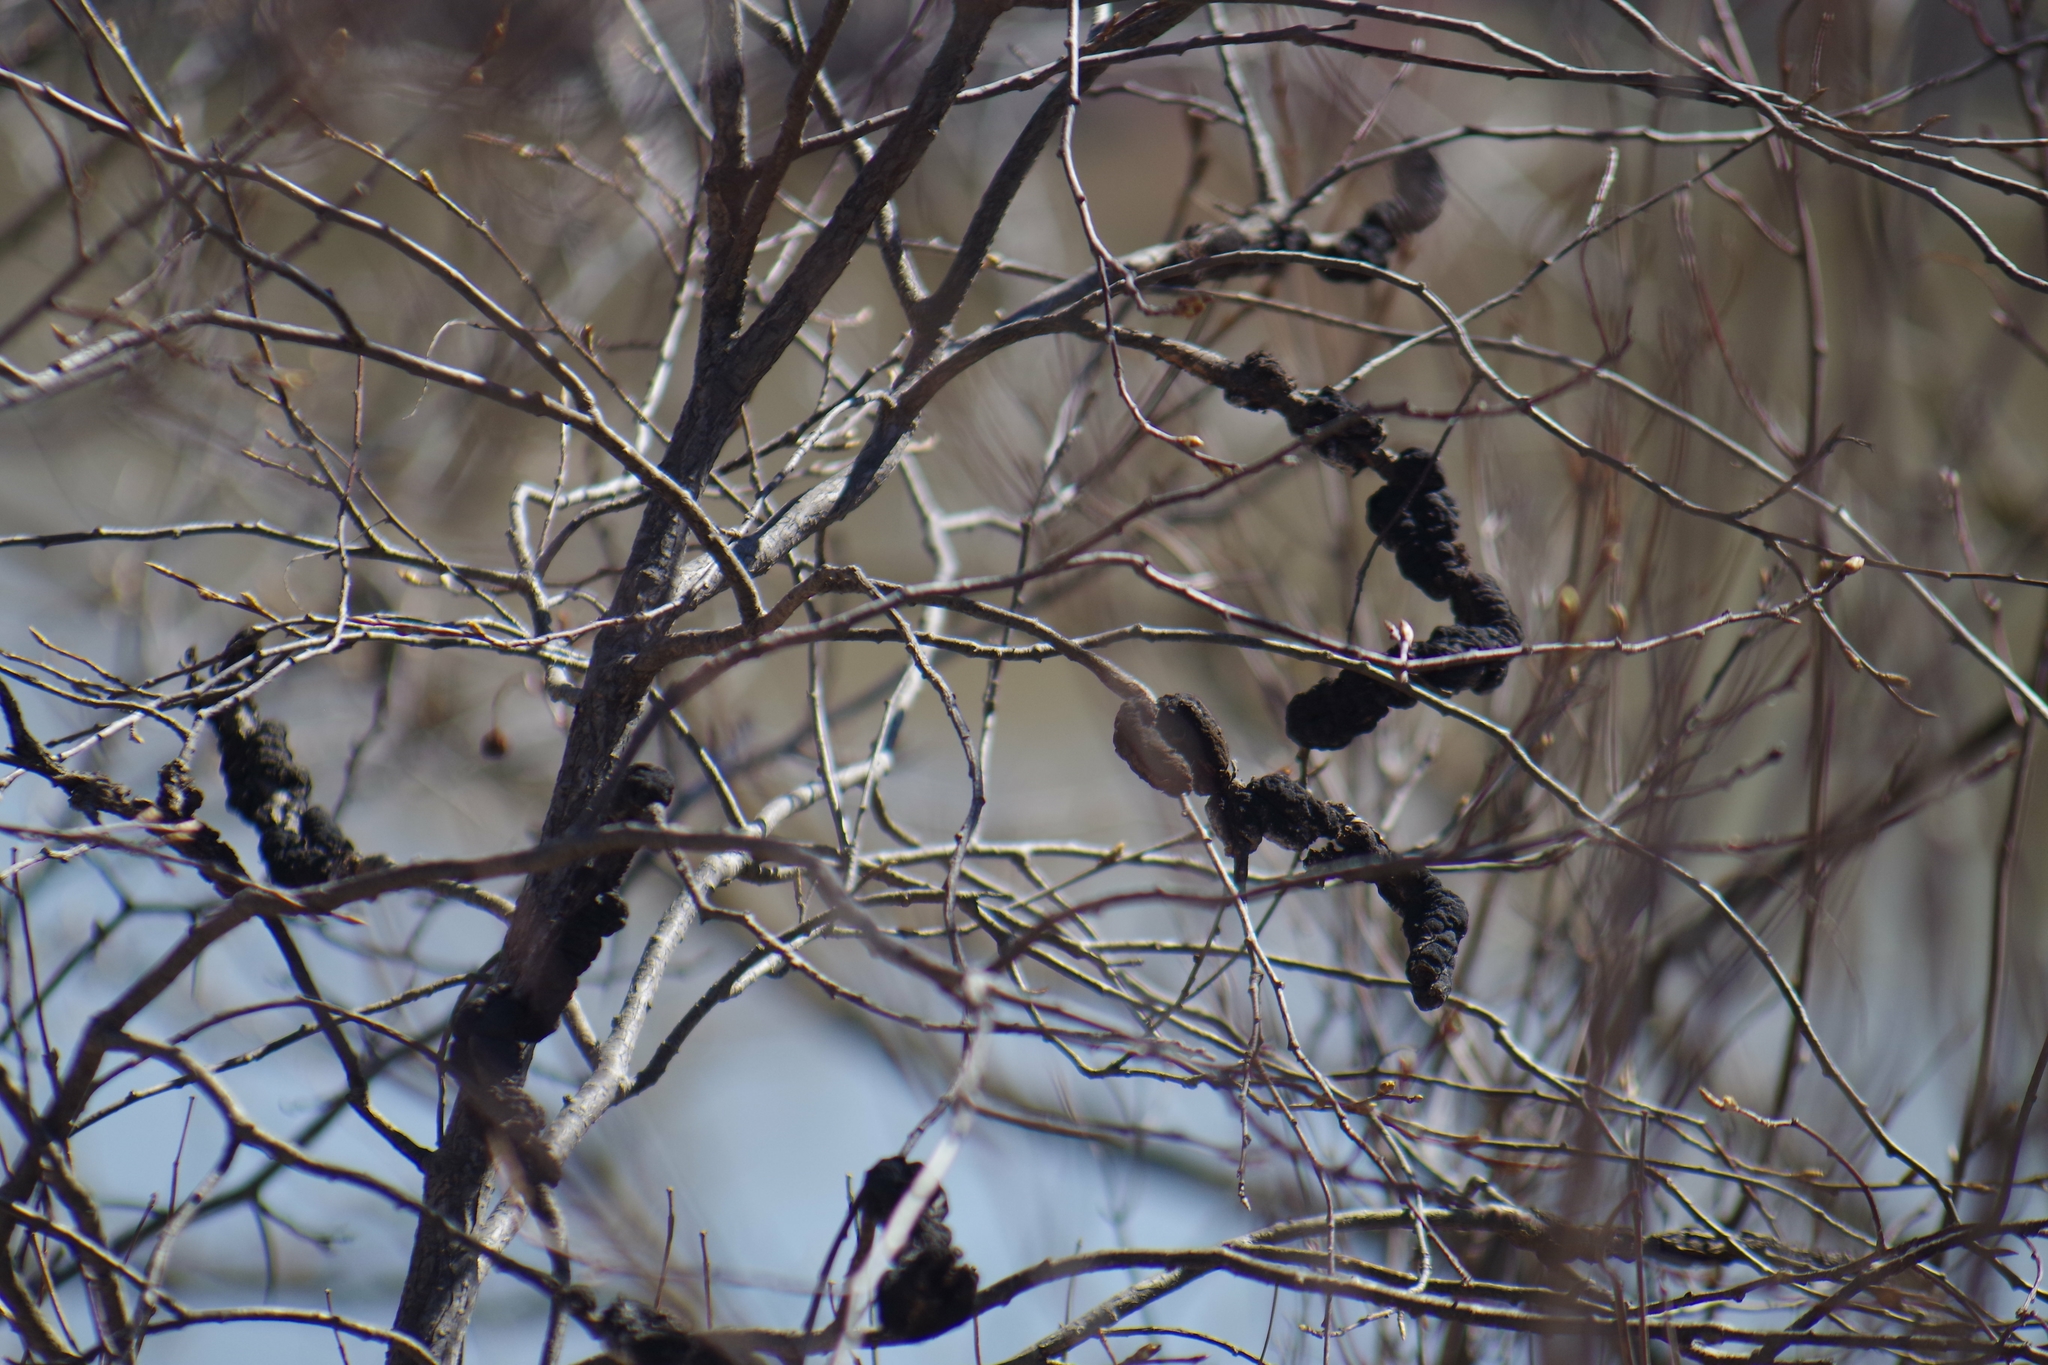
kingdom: Fungi
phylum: Ascomycota
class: Dothideomycetes
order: Venturiales
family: Venturiaceae
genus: Apiosporina
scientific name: Apiosporina morbosa
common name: Black knot
